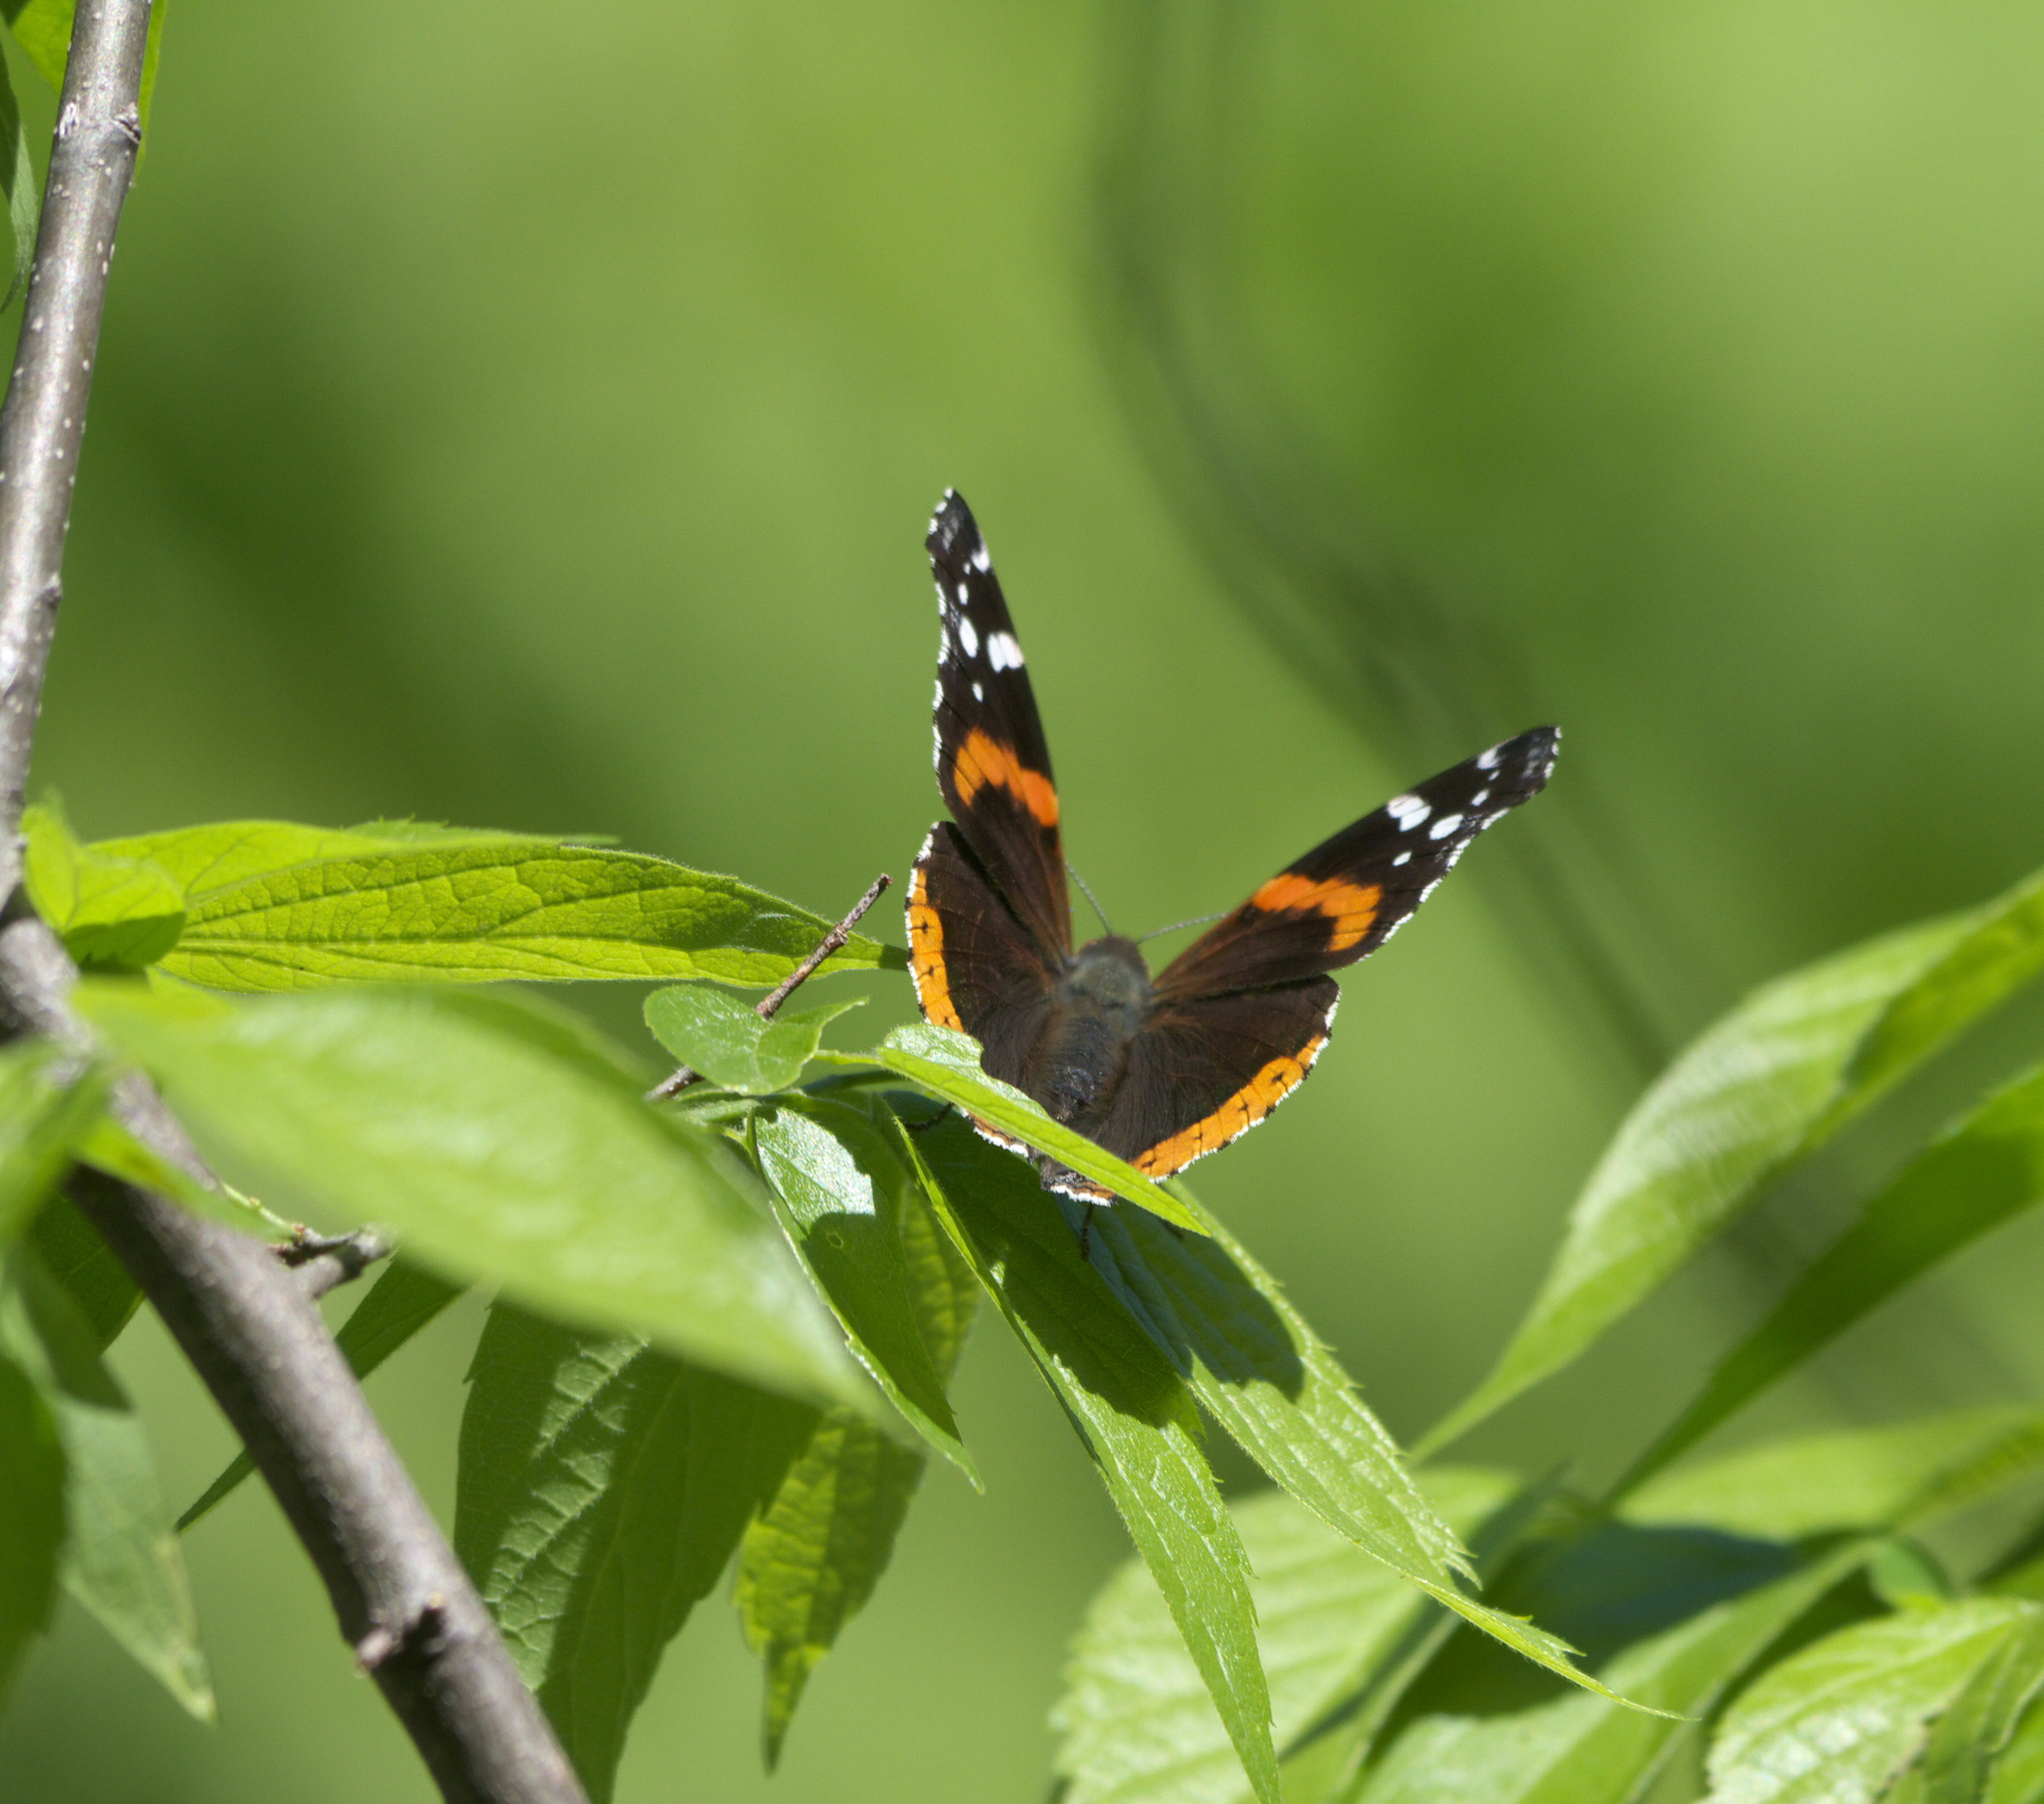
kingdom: Animalia
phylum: Arthropoda
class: Insecta
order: Lepidoptera
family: Nymphalidae
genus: Vanessa
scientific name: Vanessa atalanta
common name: Red admiral
